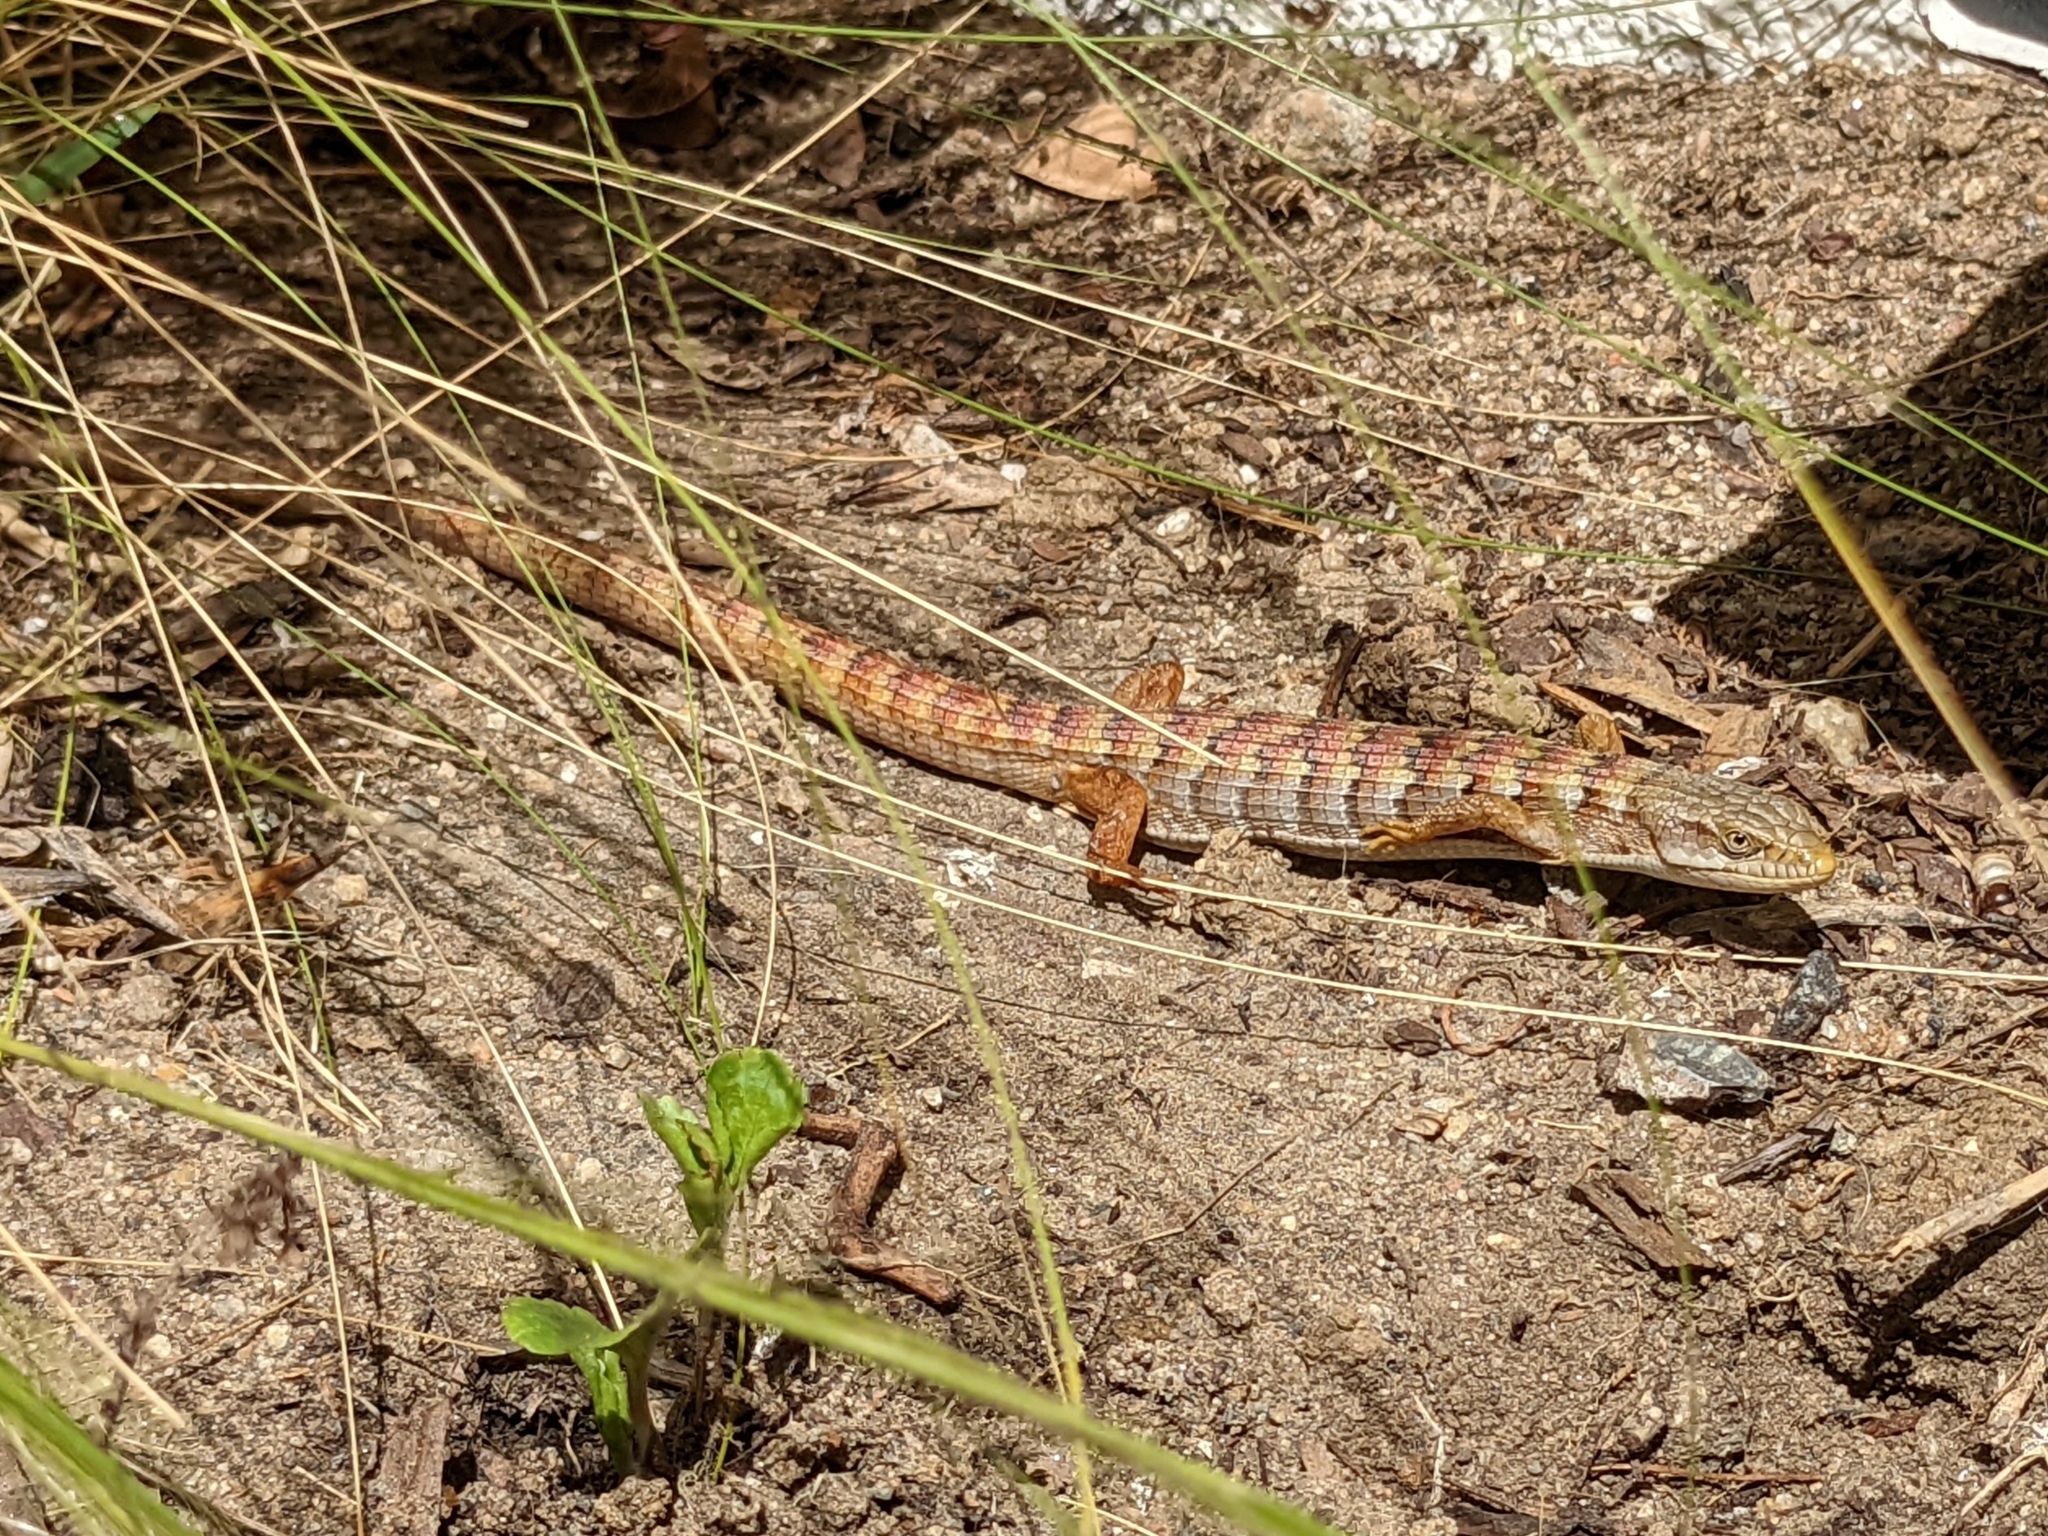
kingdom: Animalia
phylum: Chordata
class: Squamata
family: Anguidae
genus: Elgaria
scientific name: Elgaria multicarinata
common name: Southern alligator lizard
